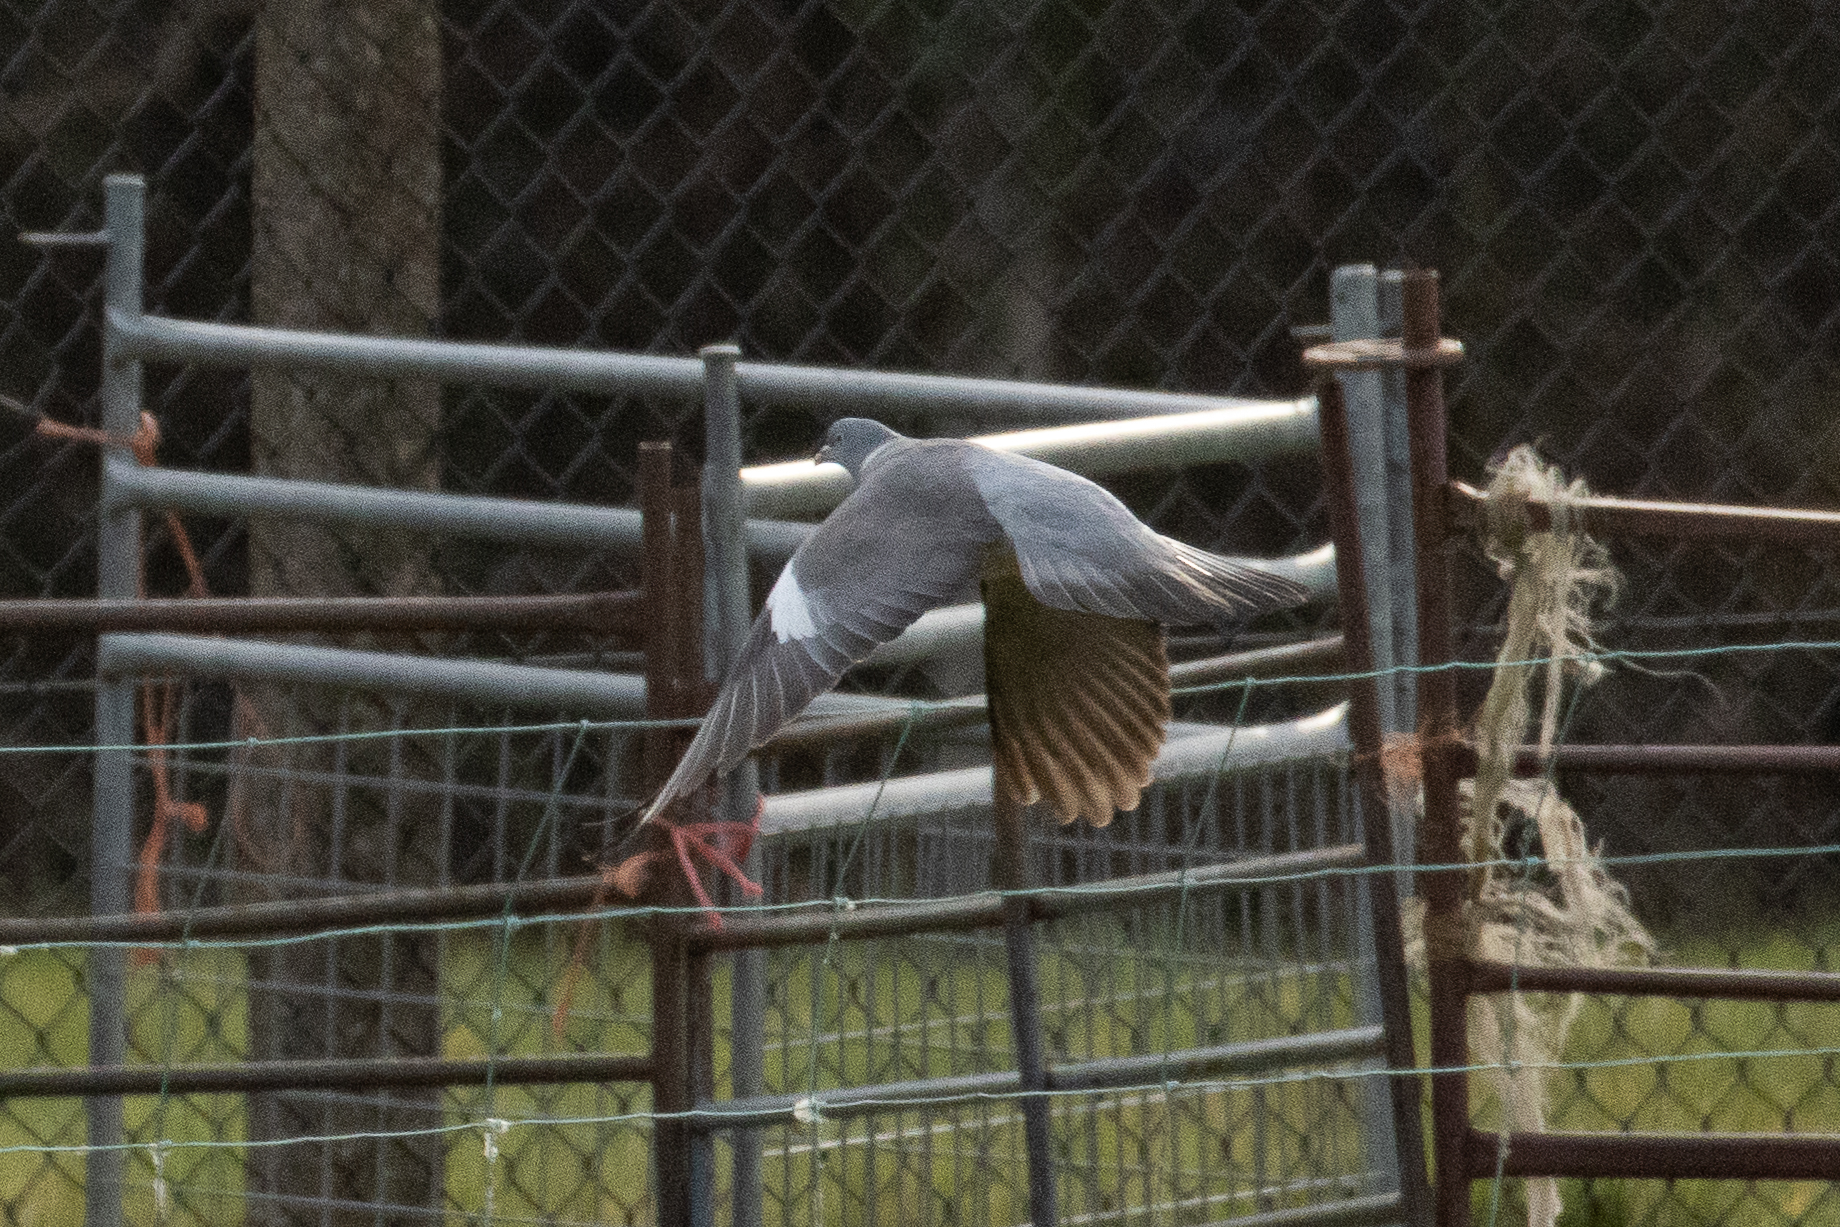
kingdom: Animalia
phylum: Chordata
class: Aves
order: Columbiformes
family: Columbidae
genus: Columba
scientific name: Columba palumbus
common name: Common wood pigeon
